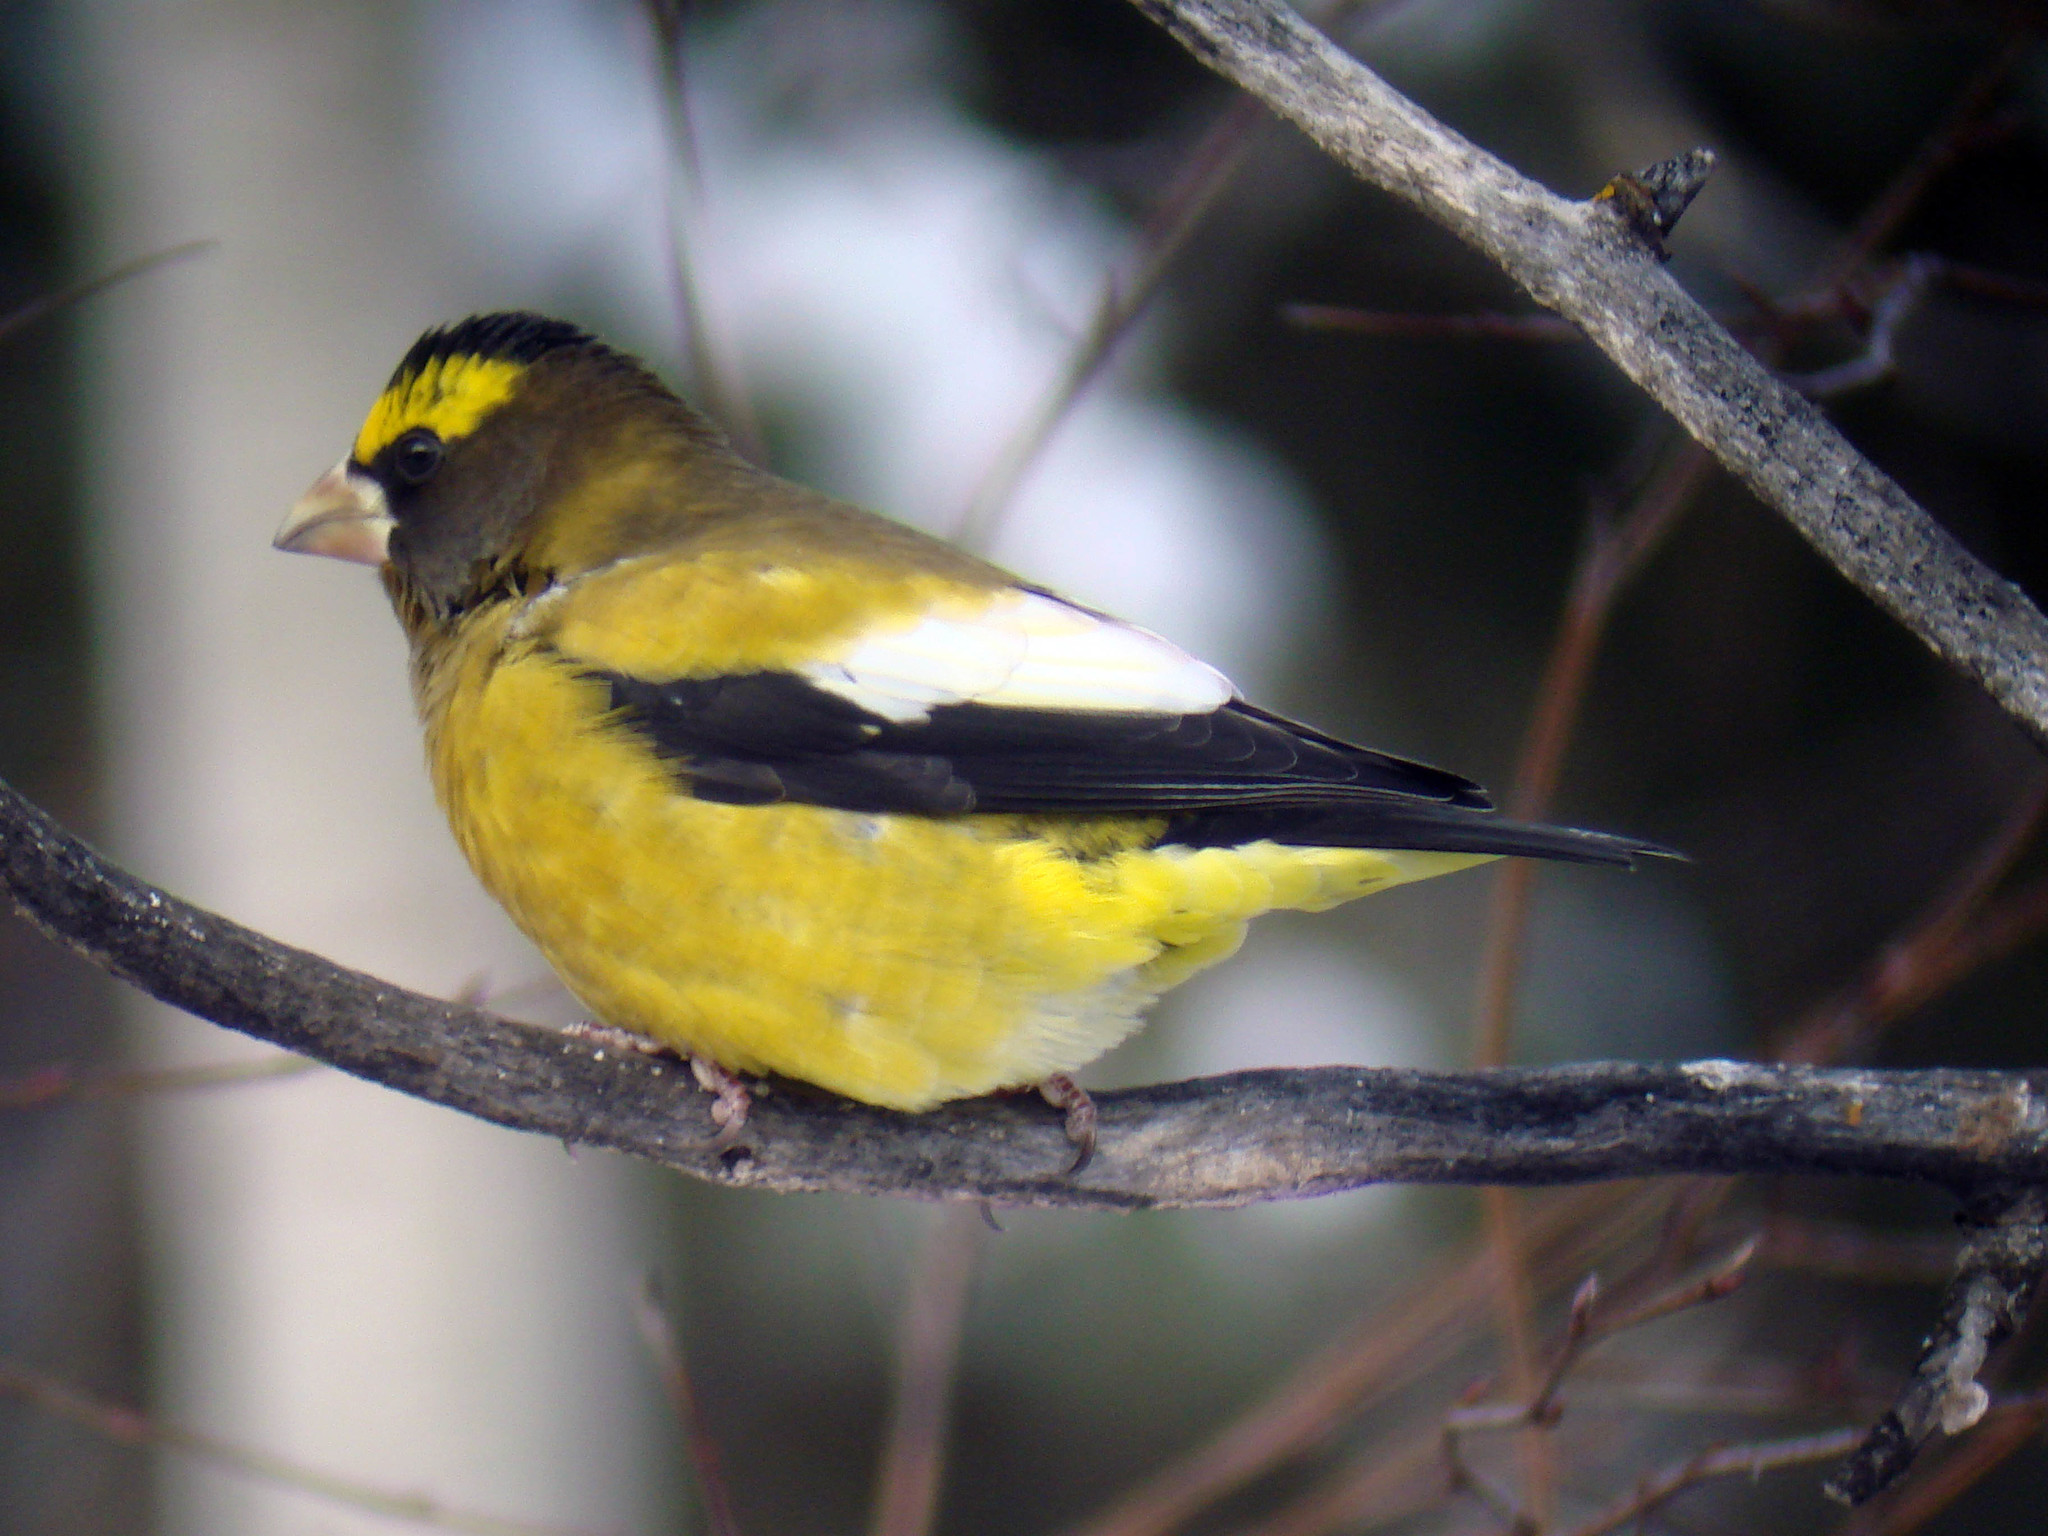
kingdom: Animalia
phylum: Chordata
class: Aves
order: Passeriformes
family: Fringillidae
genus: Hesperiphona
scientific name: Hesperiphona vespertina
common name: Evening grosbeak
